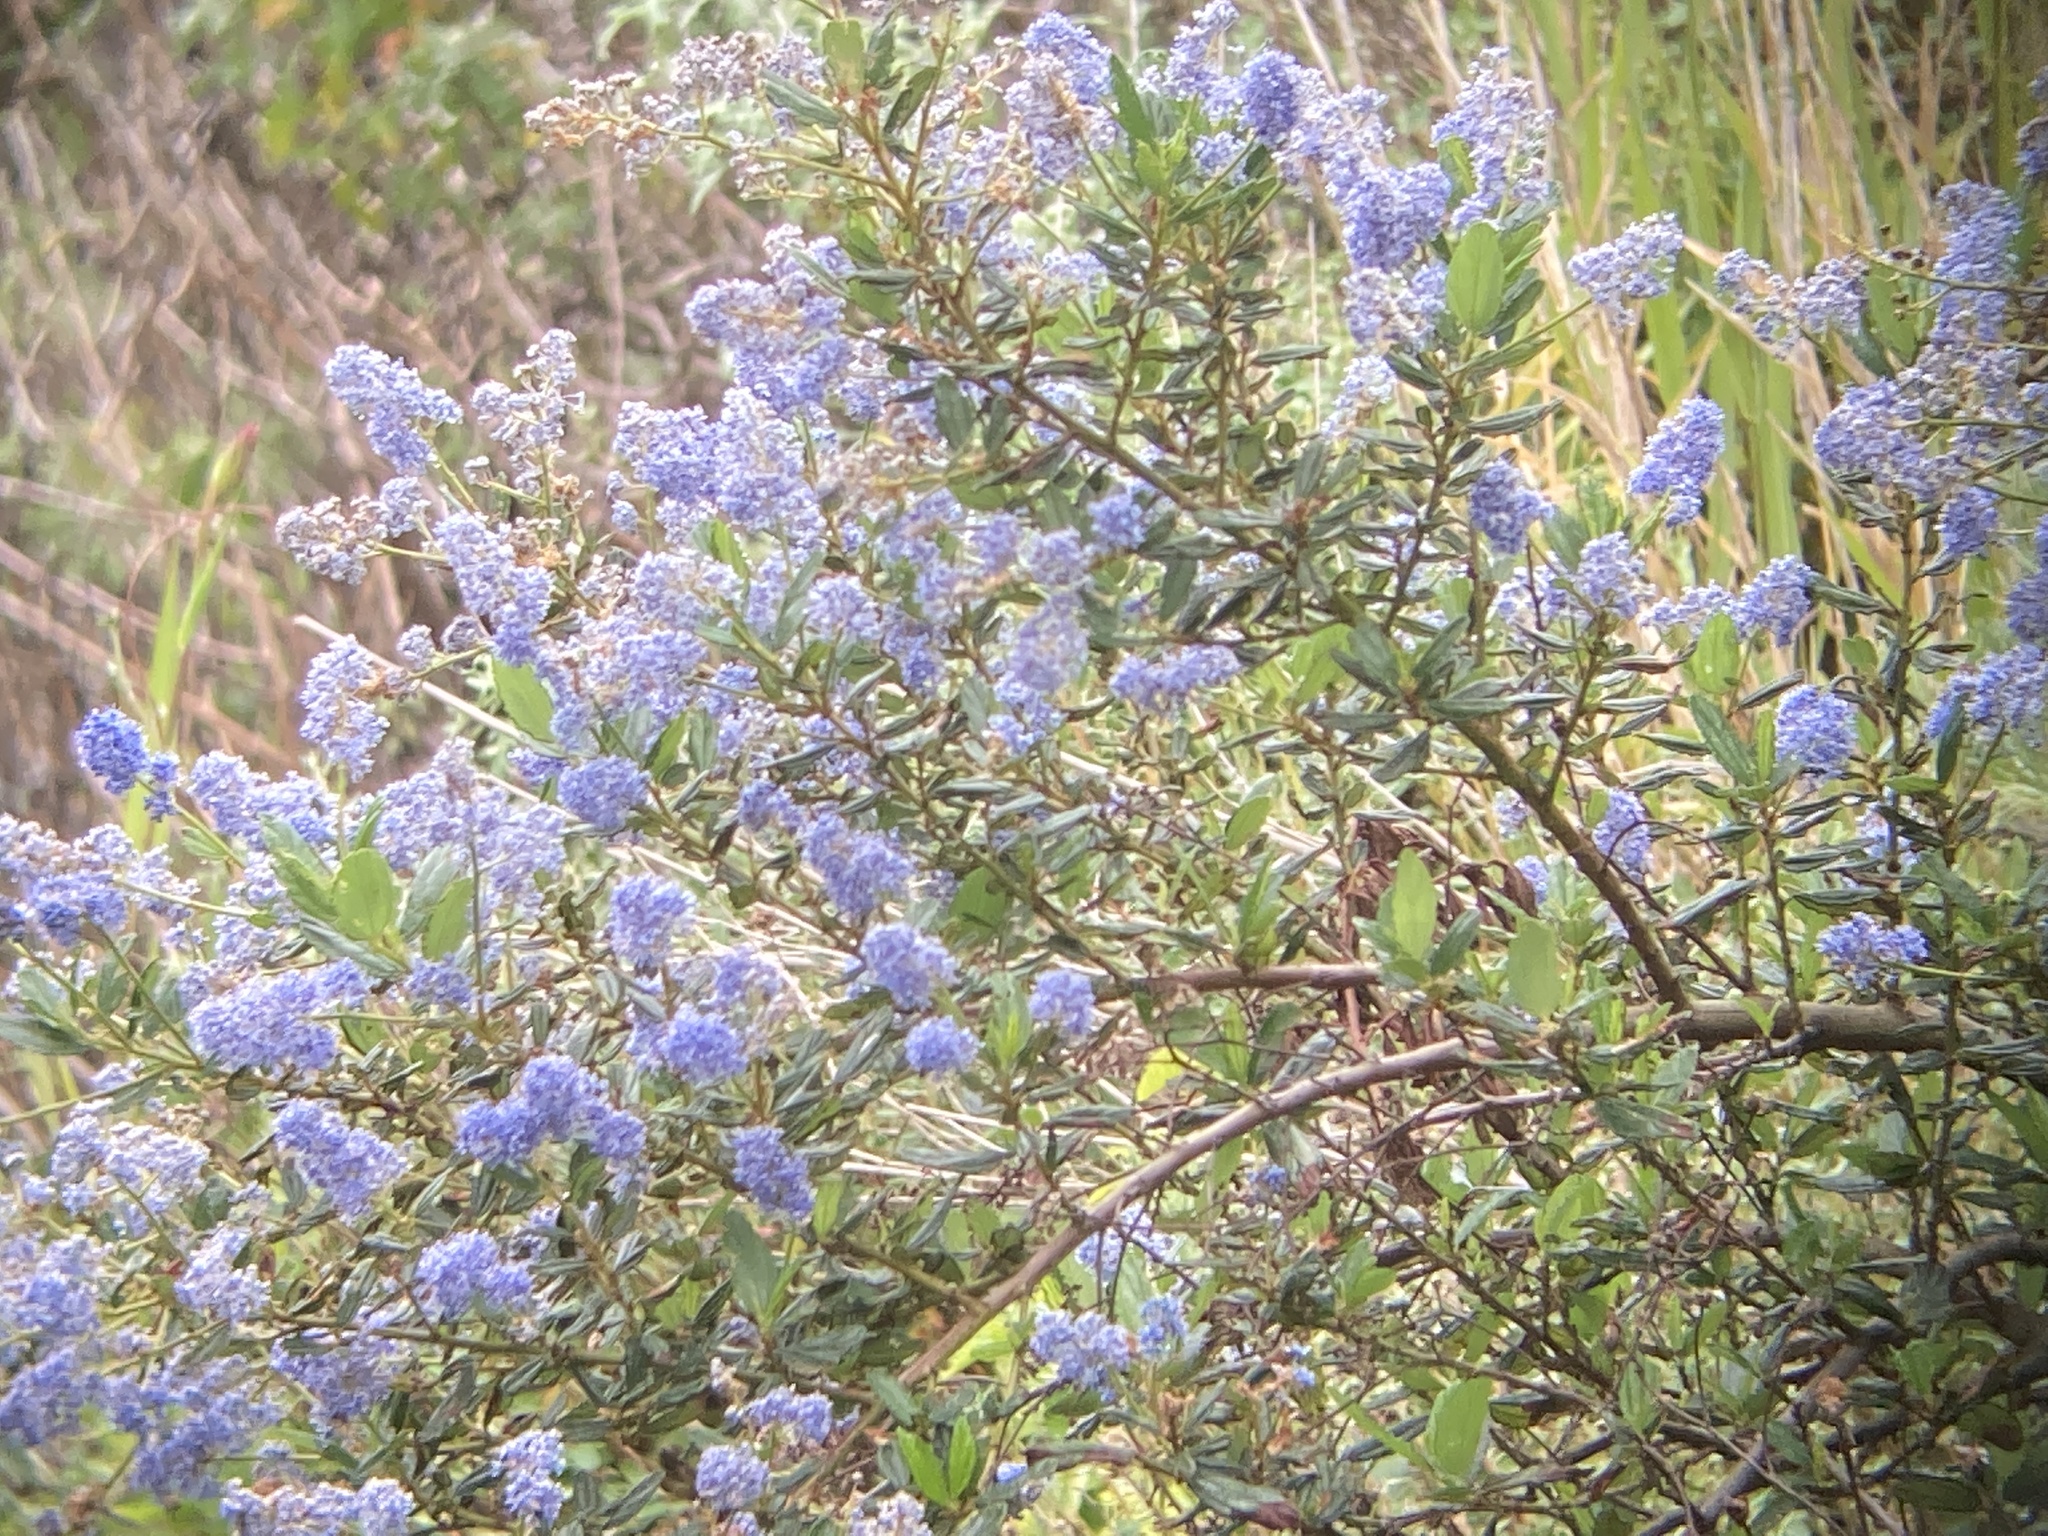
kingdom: Plantae
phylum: Tracheophyta
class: Magnoliopsida
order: Rosales
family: Rhamnaceae
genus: Ceanothus
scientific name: Ceanothus thyrsiflorus
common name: California-lilac
